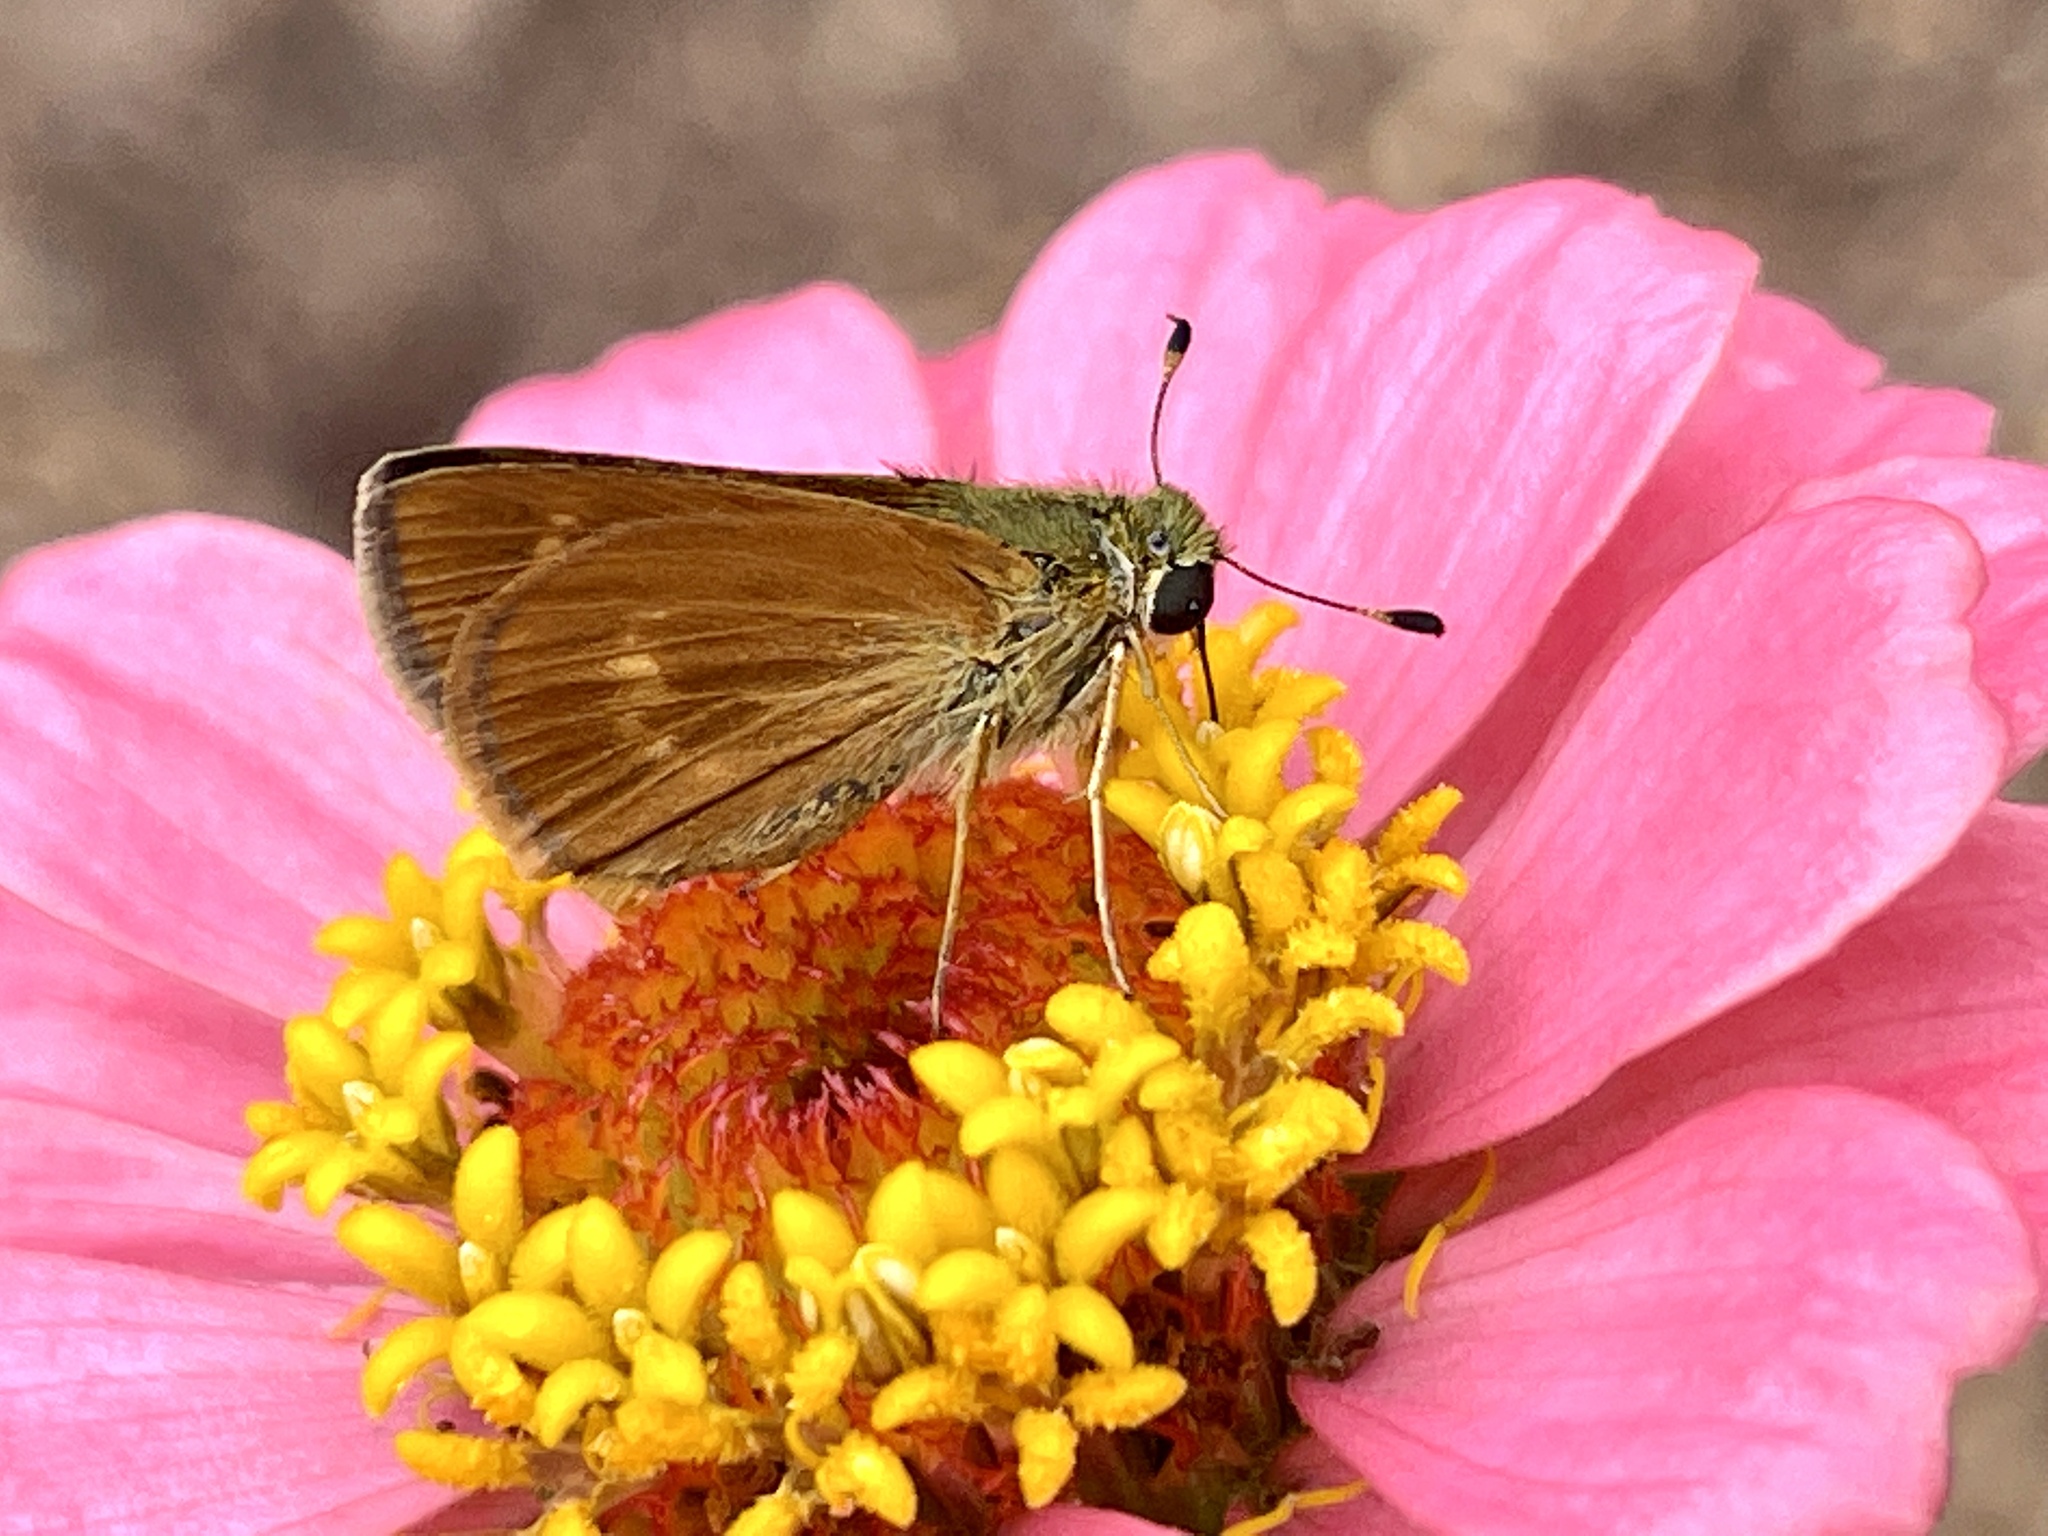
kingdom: Animalia
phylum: Arthropoda
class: Insecta
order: Lepidoptera
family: Hesperiidae
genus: Polites
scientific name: Polites otho
